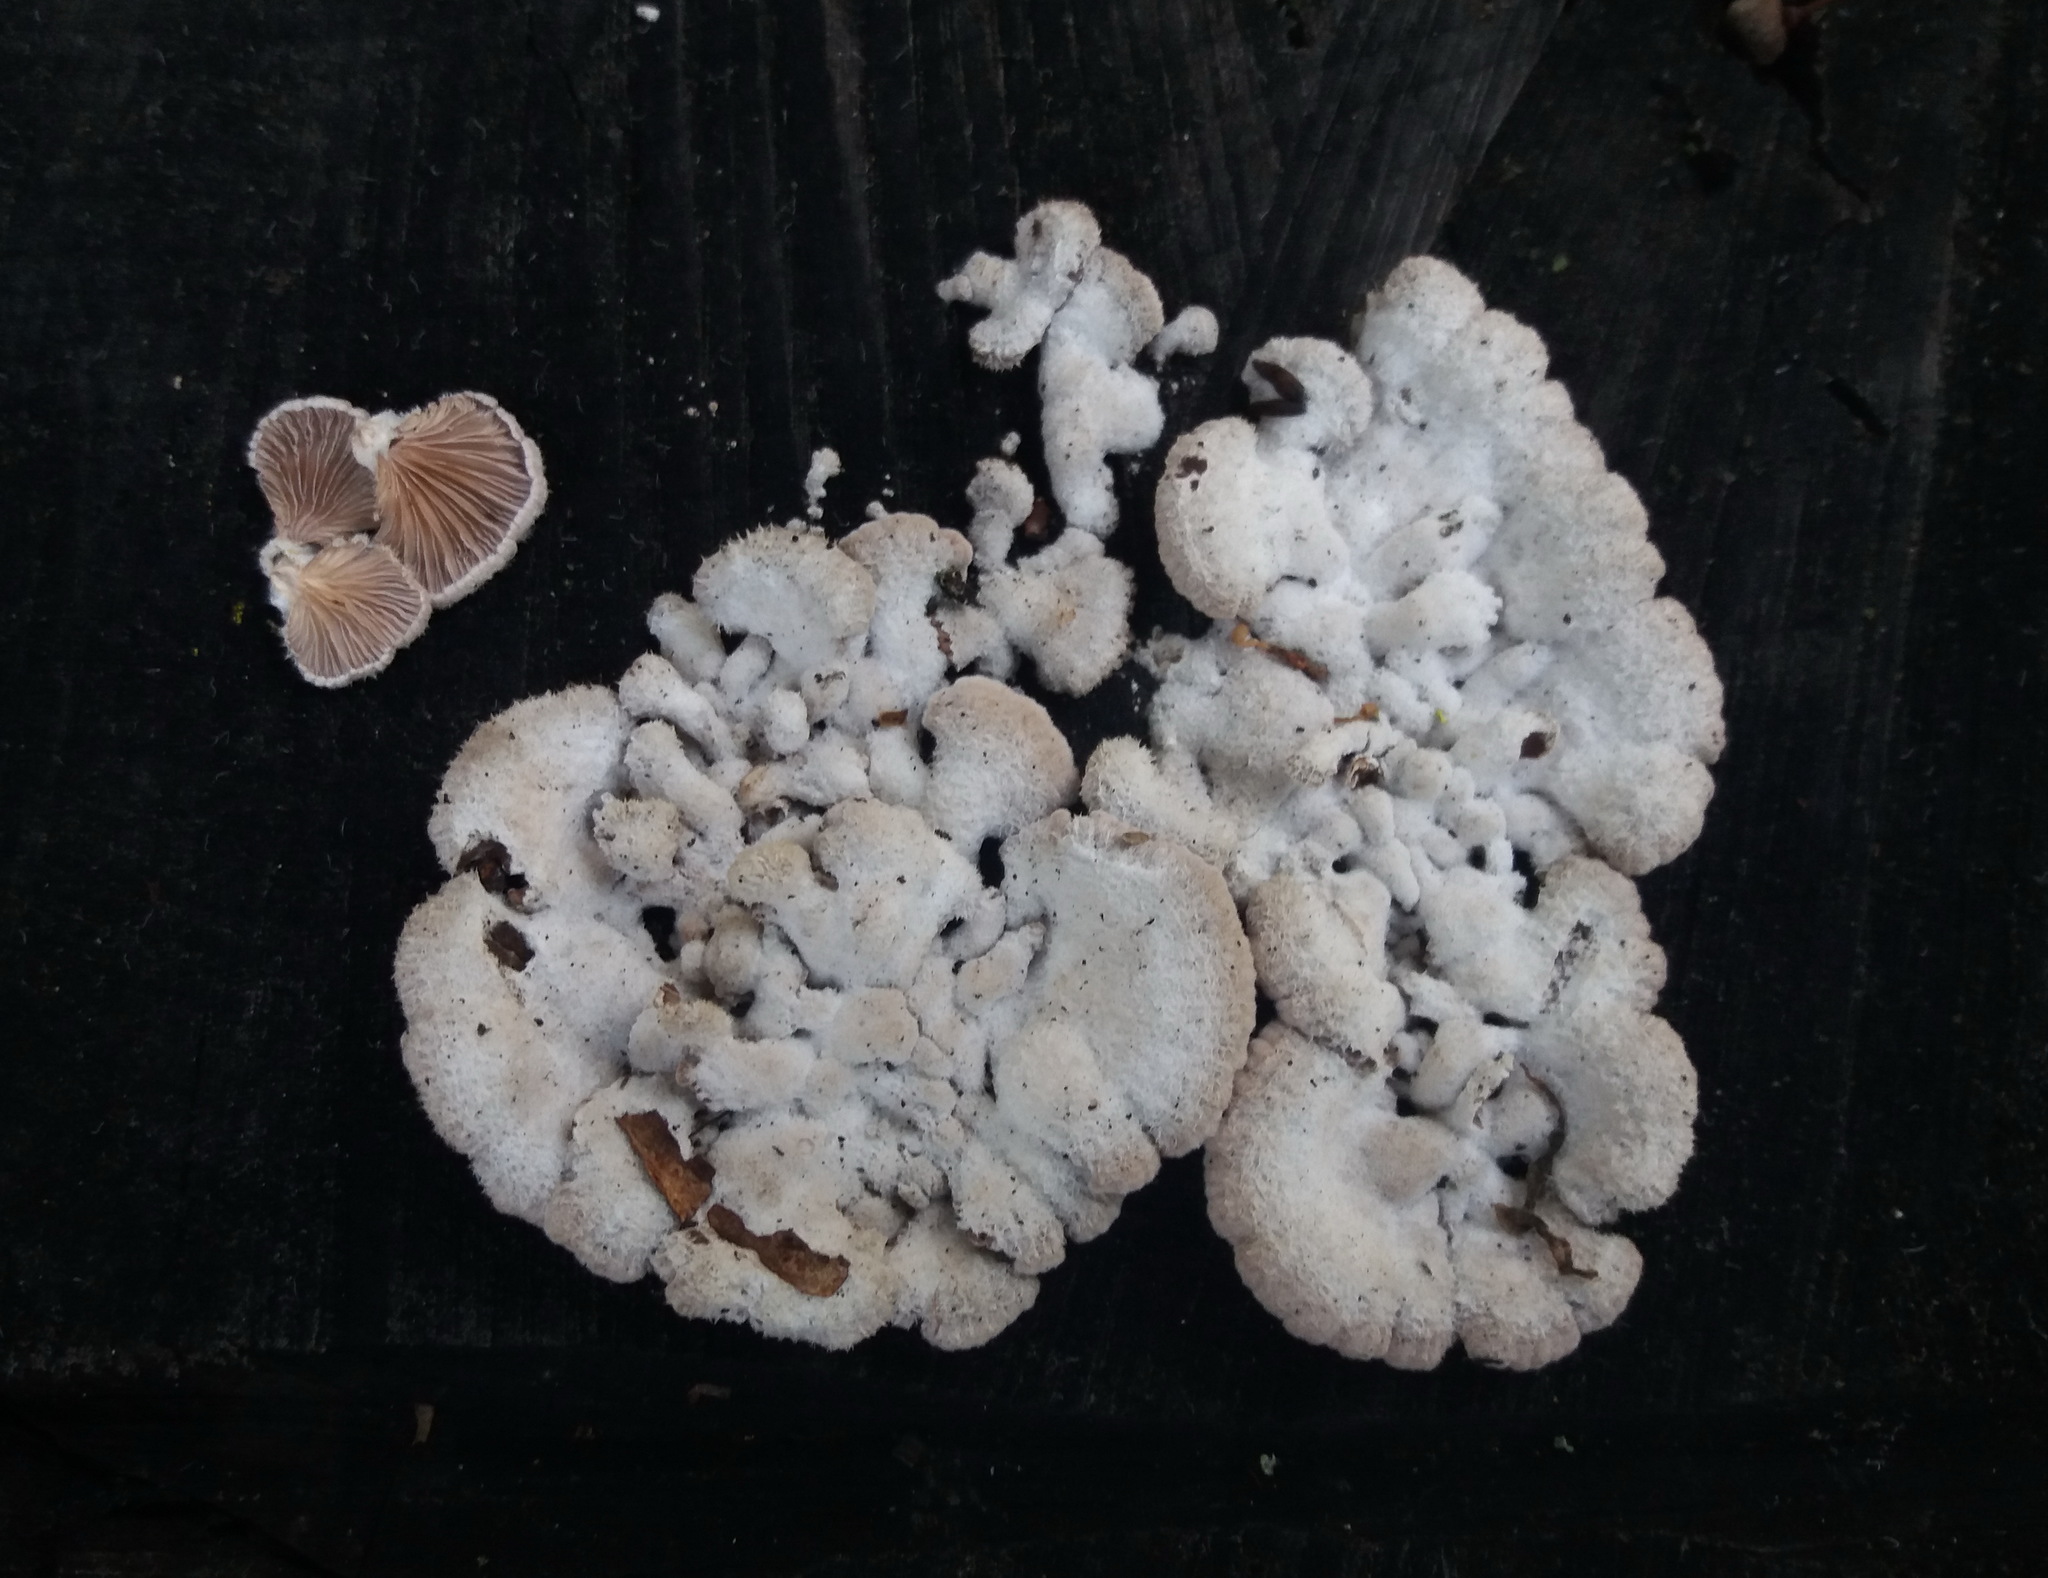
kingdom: Fungi
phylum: Basidiomycota
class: Agaricomycetes
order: Agaricales
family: Schizophyllaceae
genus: Schizophyllum
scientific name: Schizophyllum commune
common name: Common porecrust
